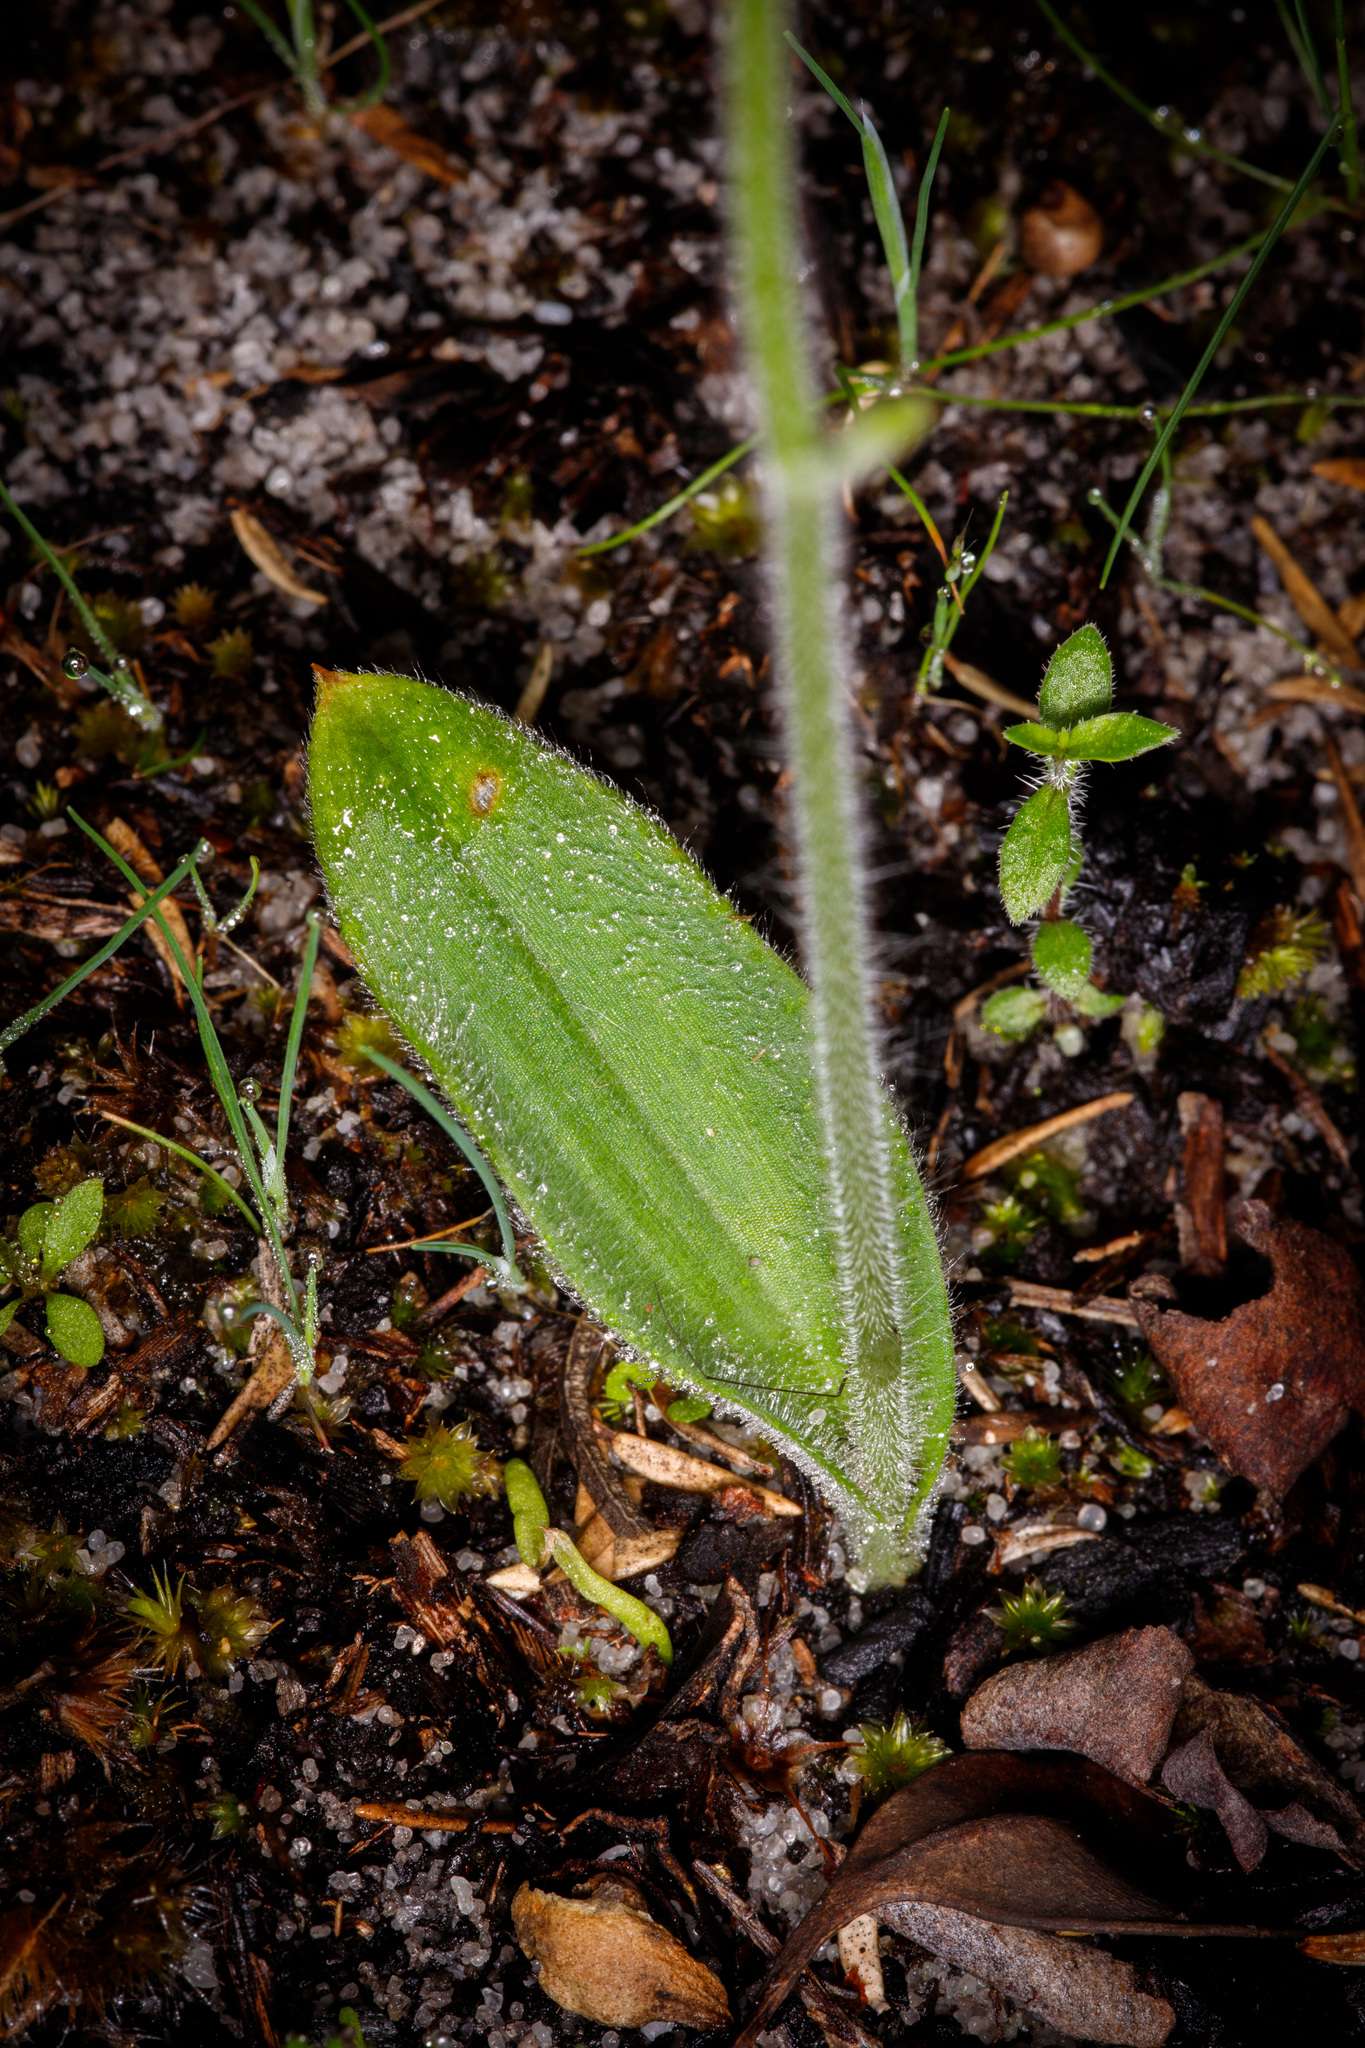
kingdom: Plantae
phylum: Tracheophyta
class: Liliopsida
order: Asparagales
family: Orchidaceae
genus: Caladenia
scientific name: Caladenia latifolia
